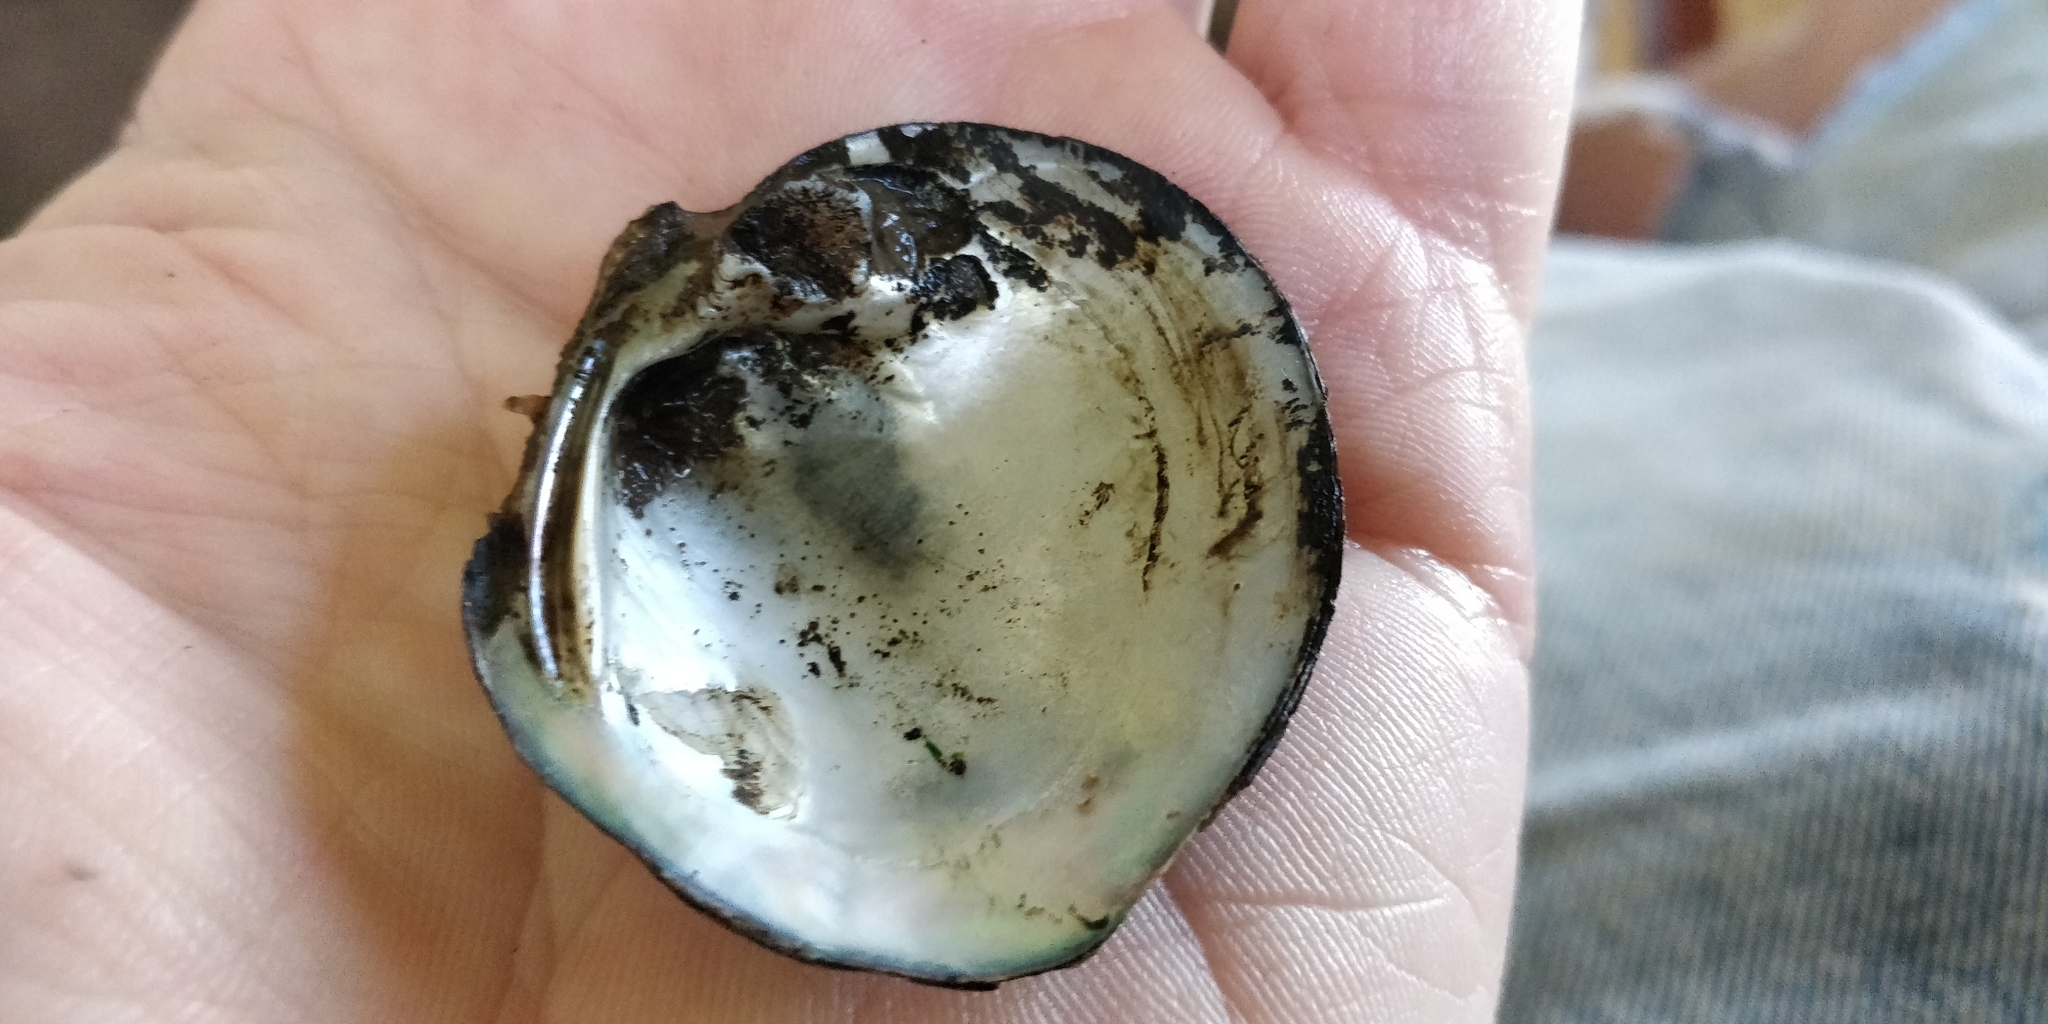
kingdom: Animalia
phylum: Mollusca
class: Bivalvia
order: Unionida
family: Unionidae
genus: Cyclonaias
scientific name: Cyclonaias pustulosa
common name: Pimpleback
